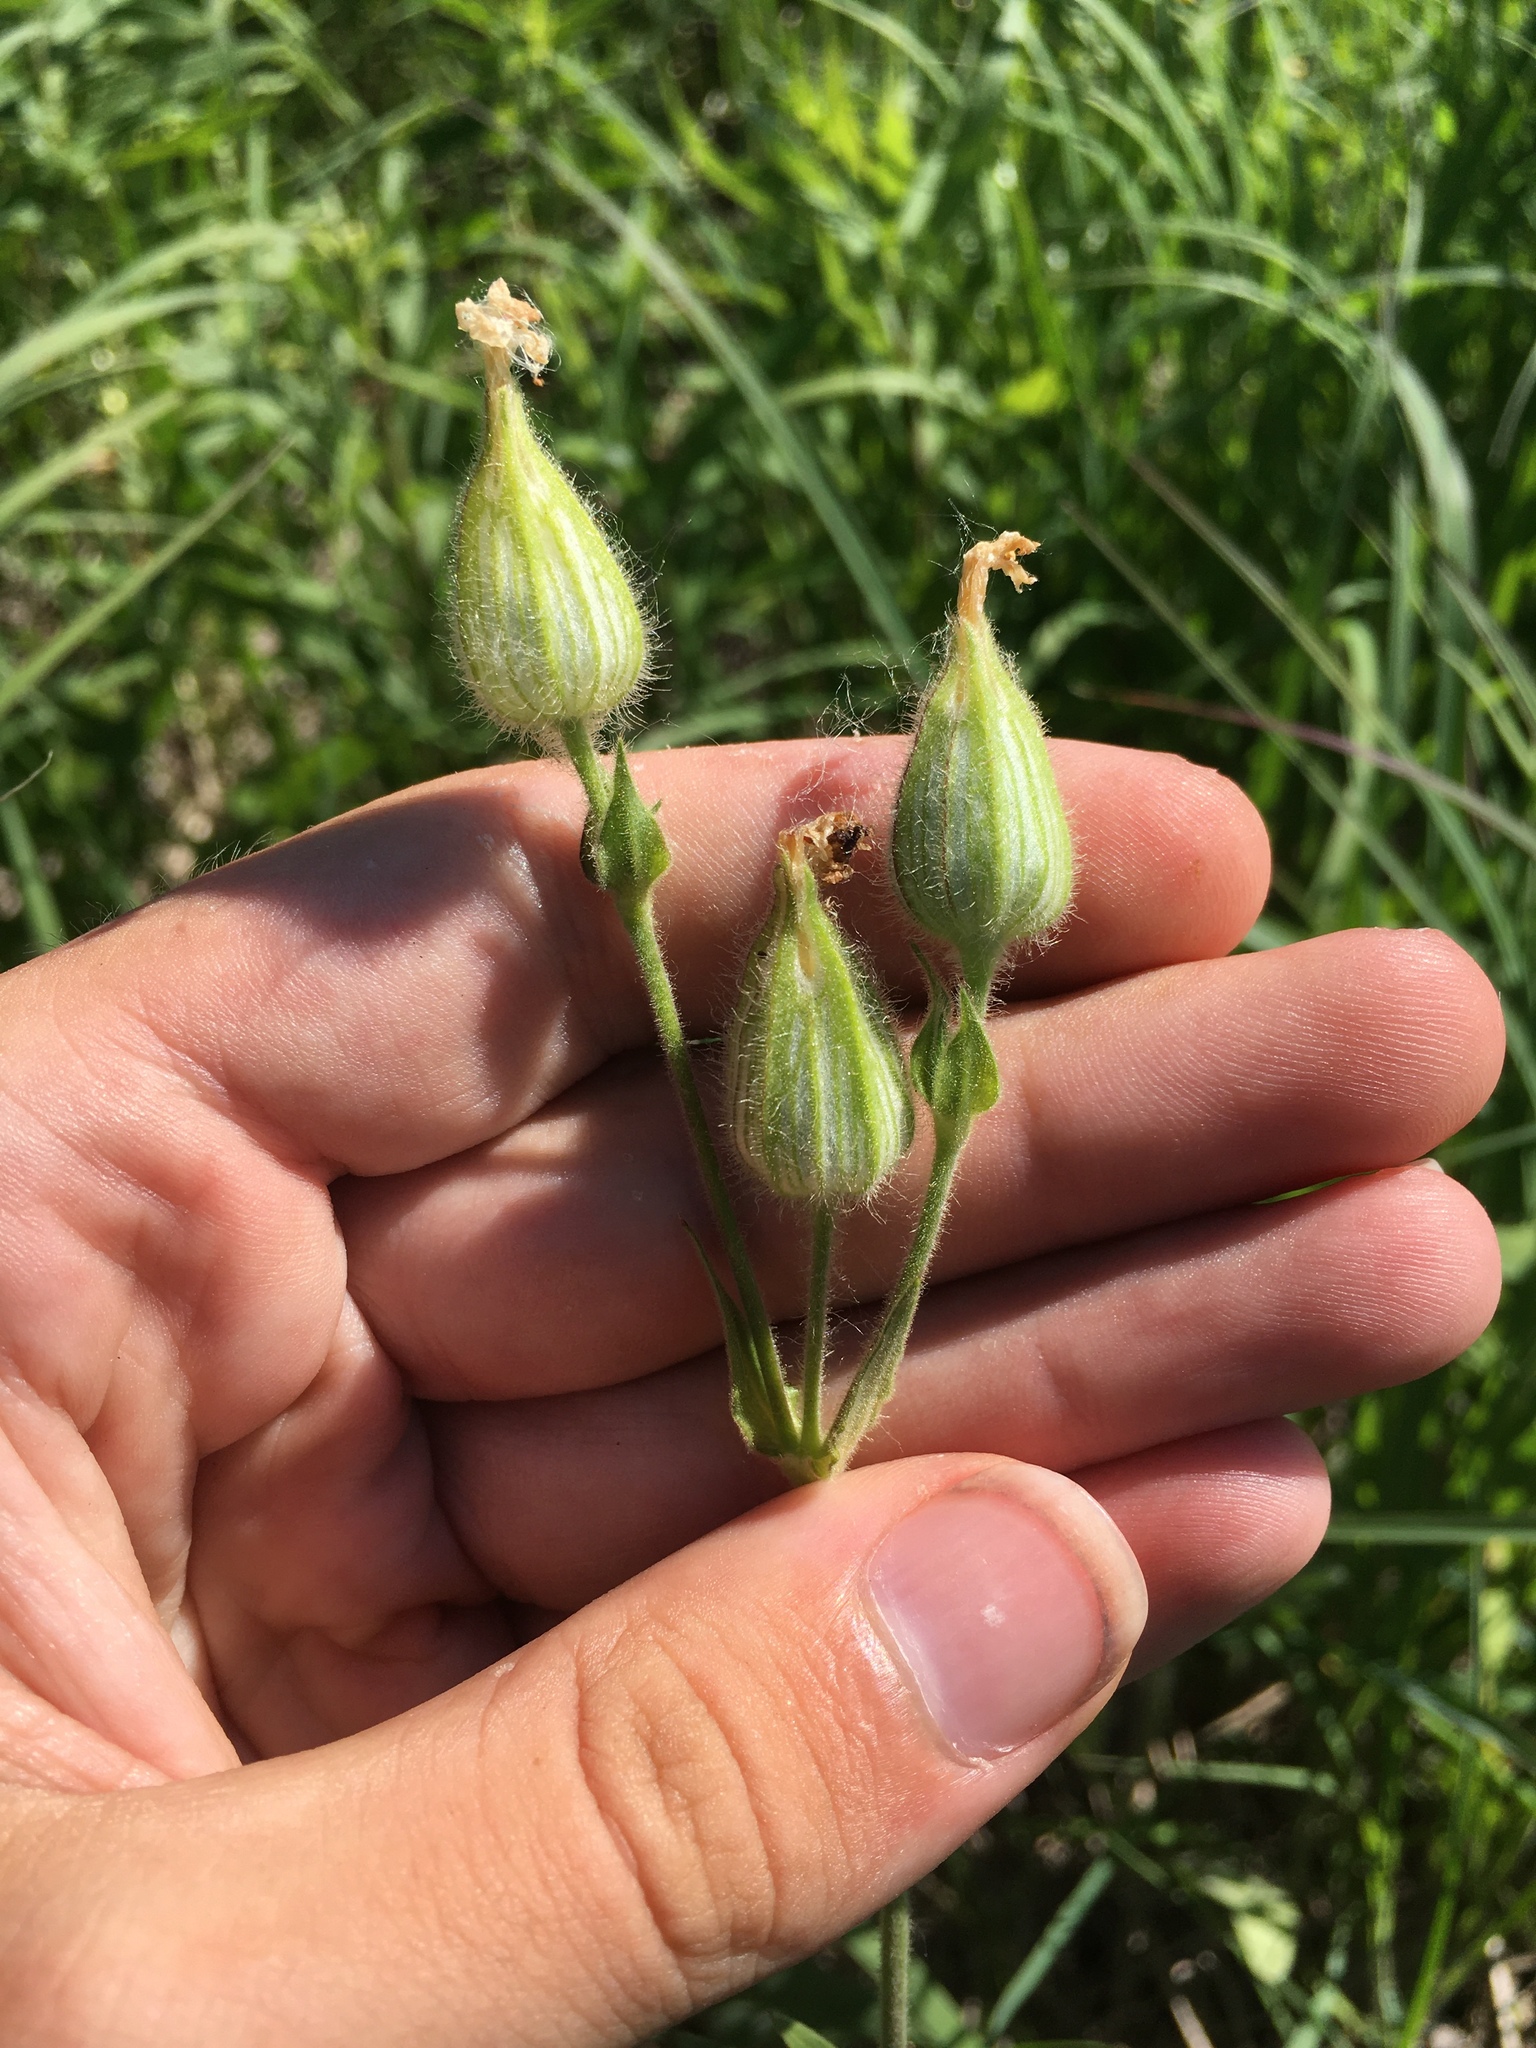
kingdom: Plantae
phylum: Tracheophyta
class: Magnoliopsida
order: Caryophyllales
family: Caryophyllaceae
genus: Silene
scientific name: Silene latifolia
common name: White campion
